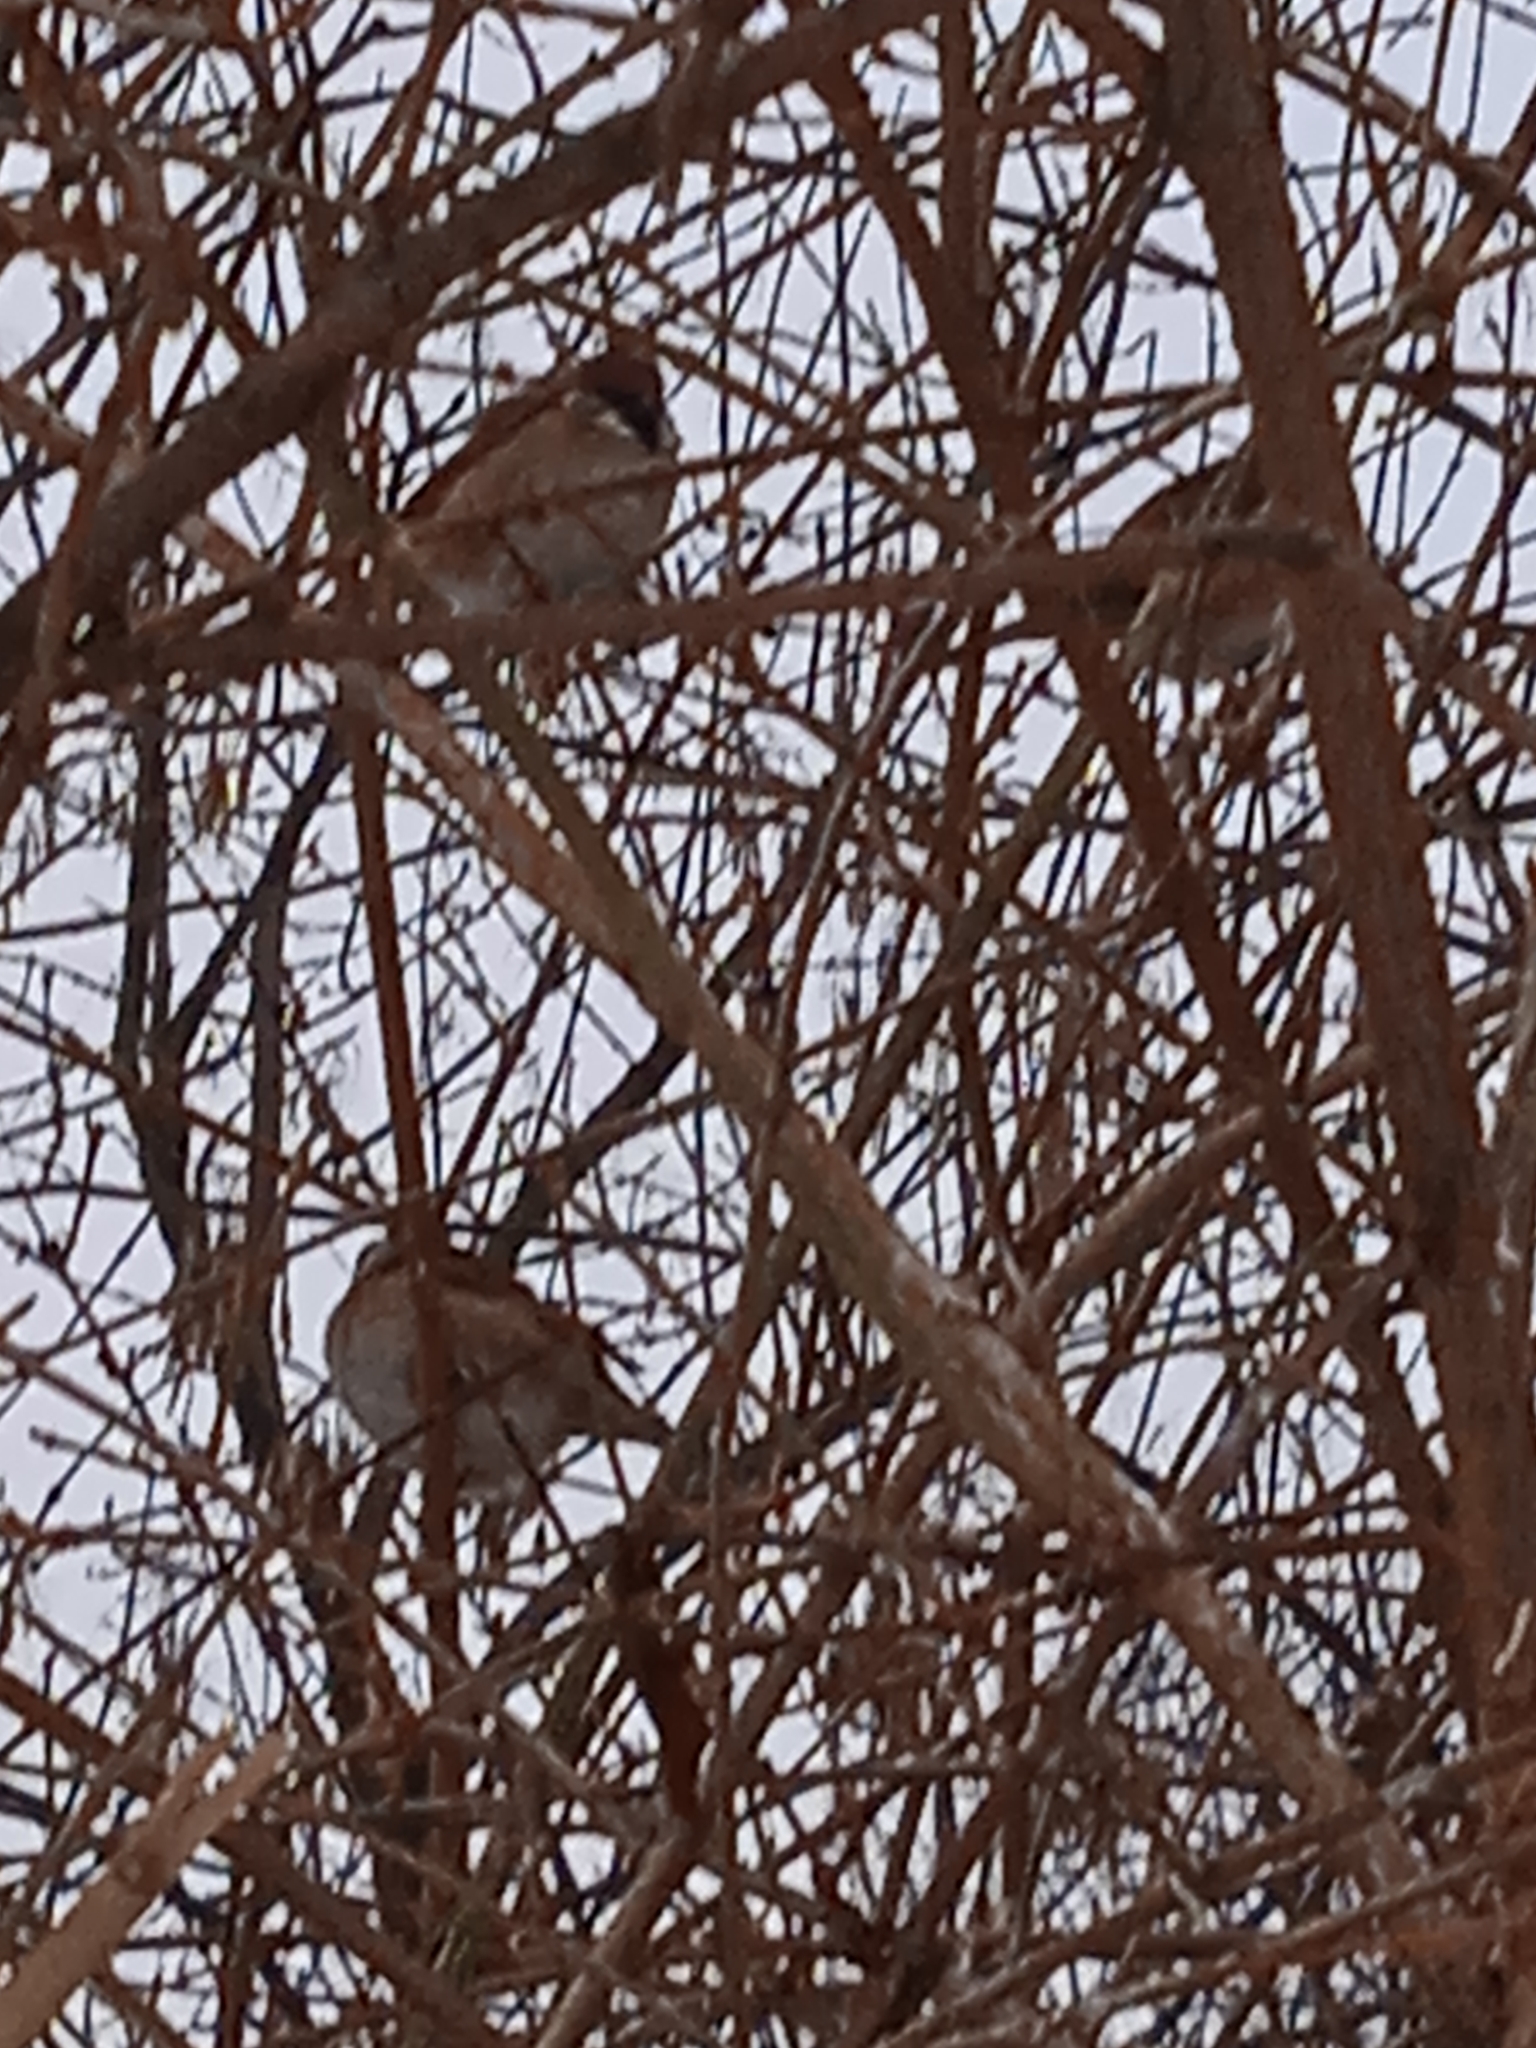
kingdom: Animalia
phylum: Chordata
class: Aves
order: Passeriformes
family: Passeridae
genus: Passer
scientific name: Passer montanus
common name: Eurasian tree sparrow
